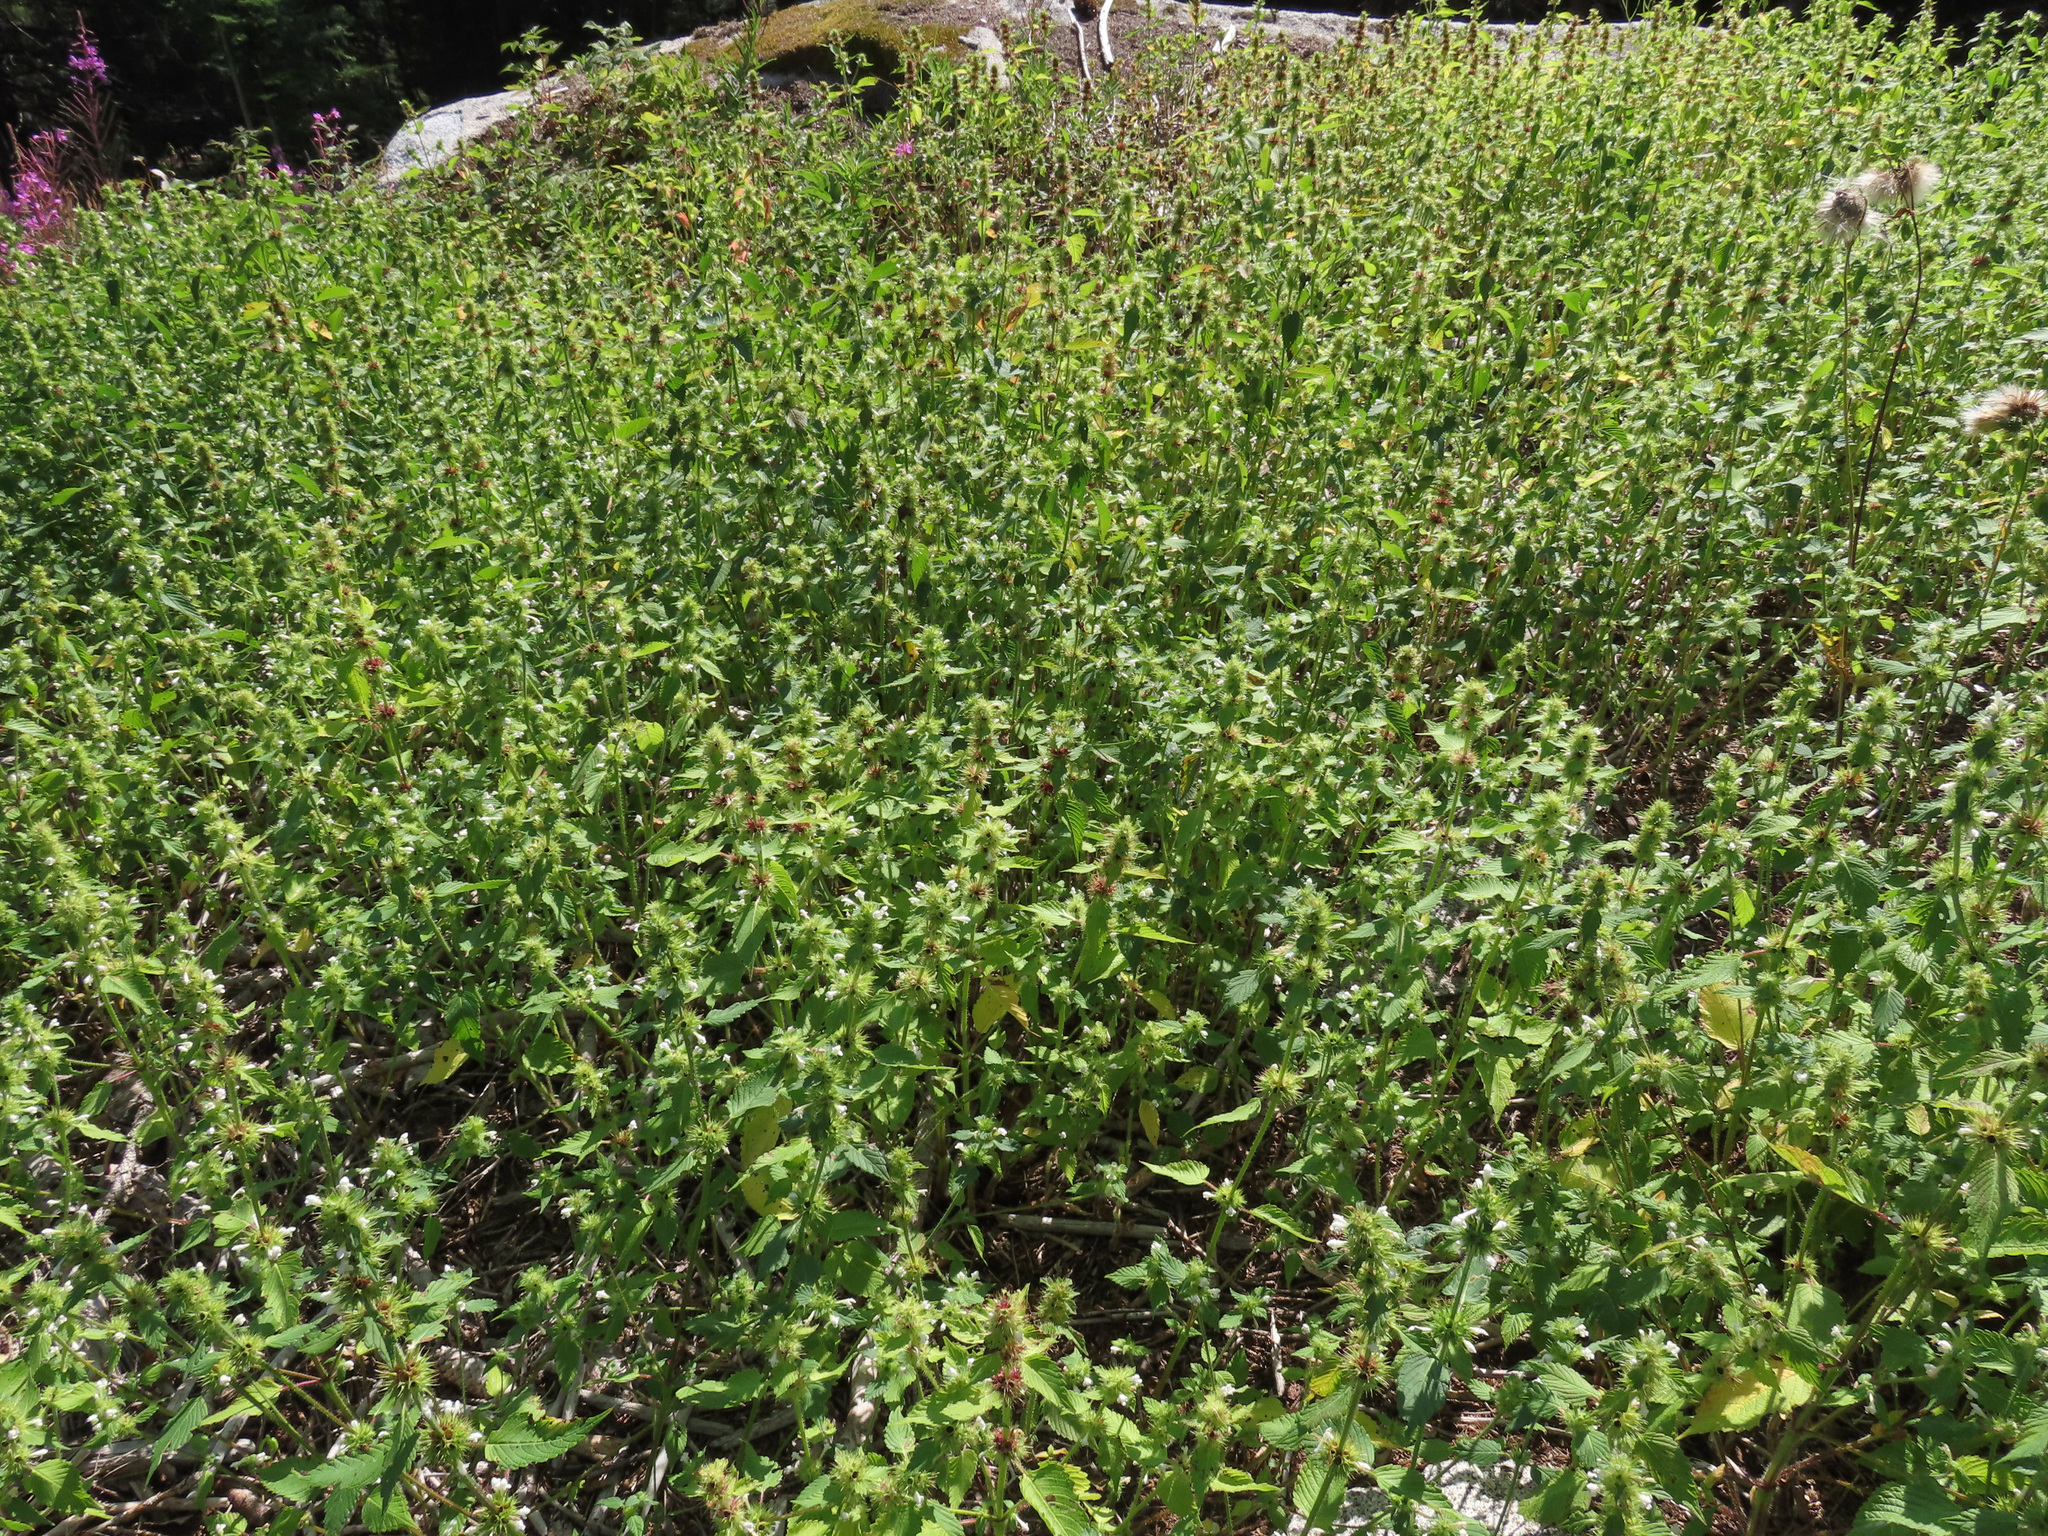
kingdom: Plantae
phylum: Tracheophyta
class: Magnoliopsida
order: Lamiales
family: Lamiaceae
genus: Galeopsis
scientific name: Galeopsis tetrahit
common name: Common hemp-nettle
